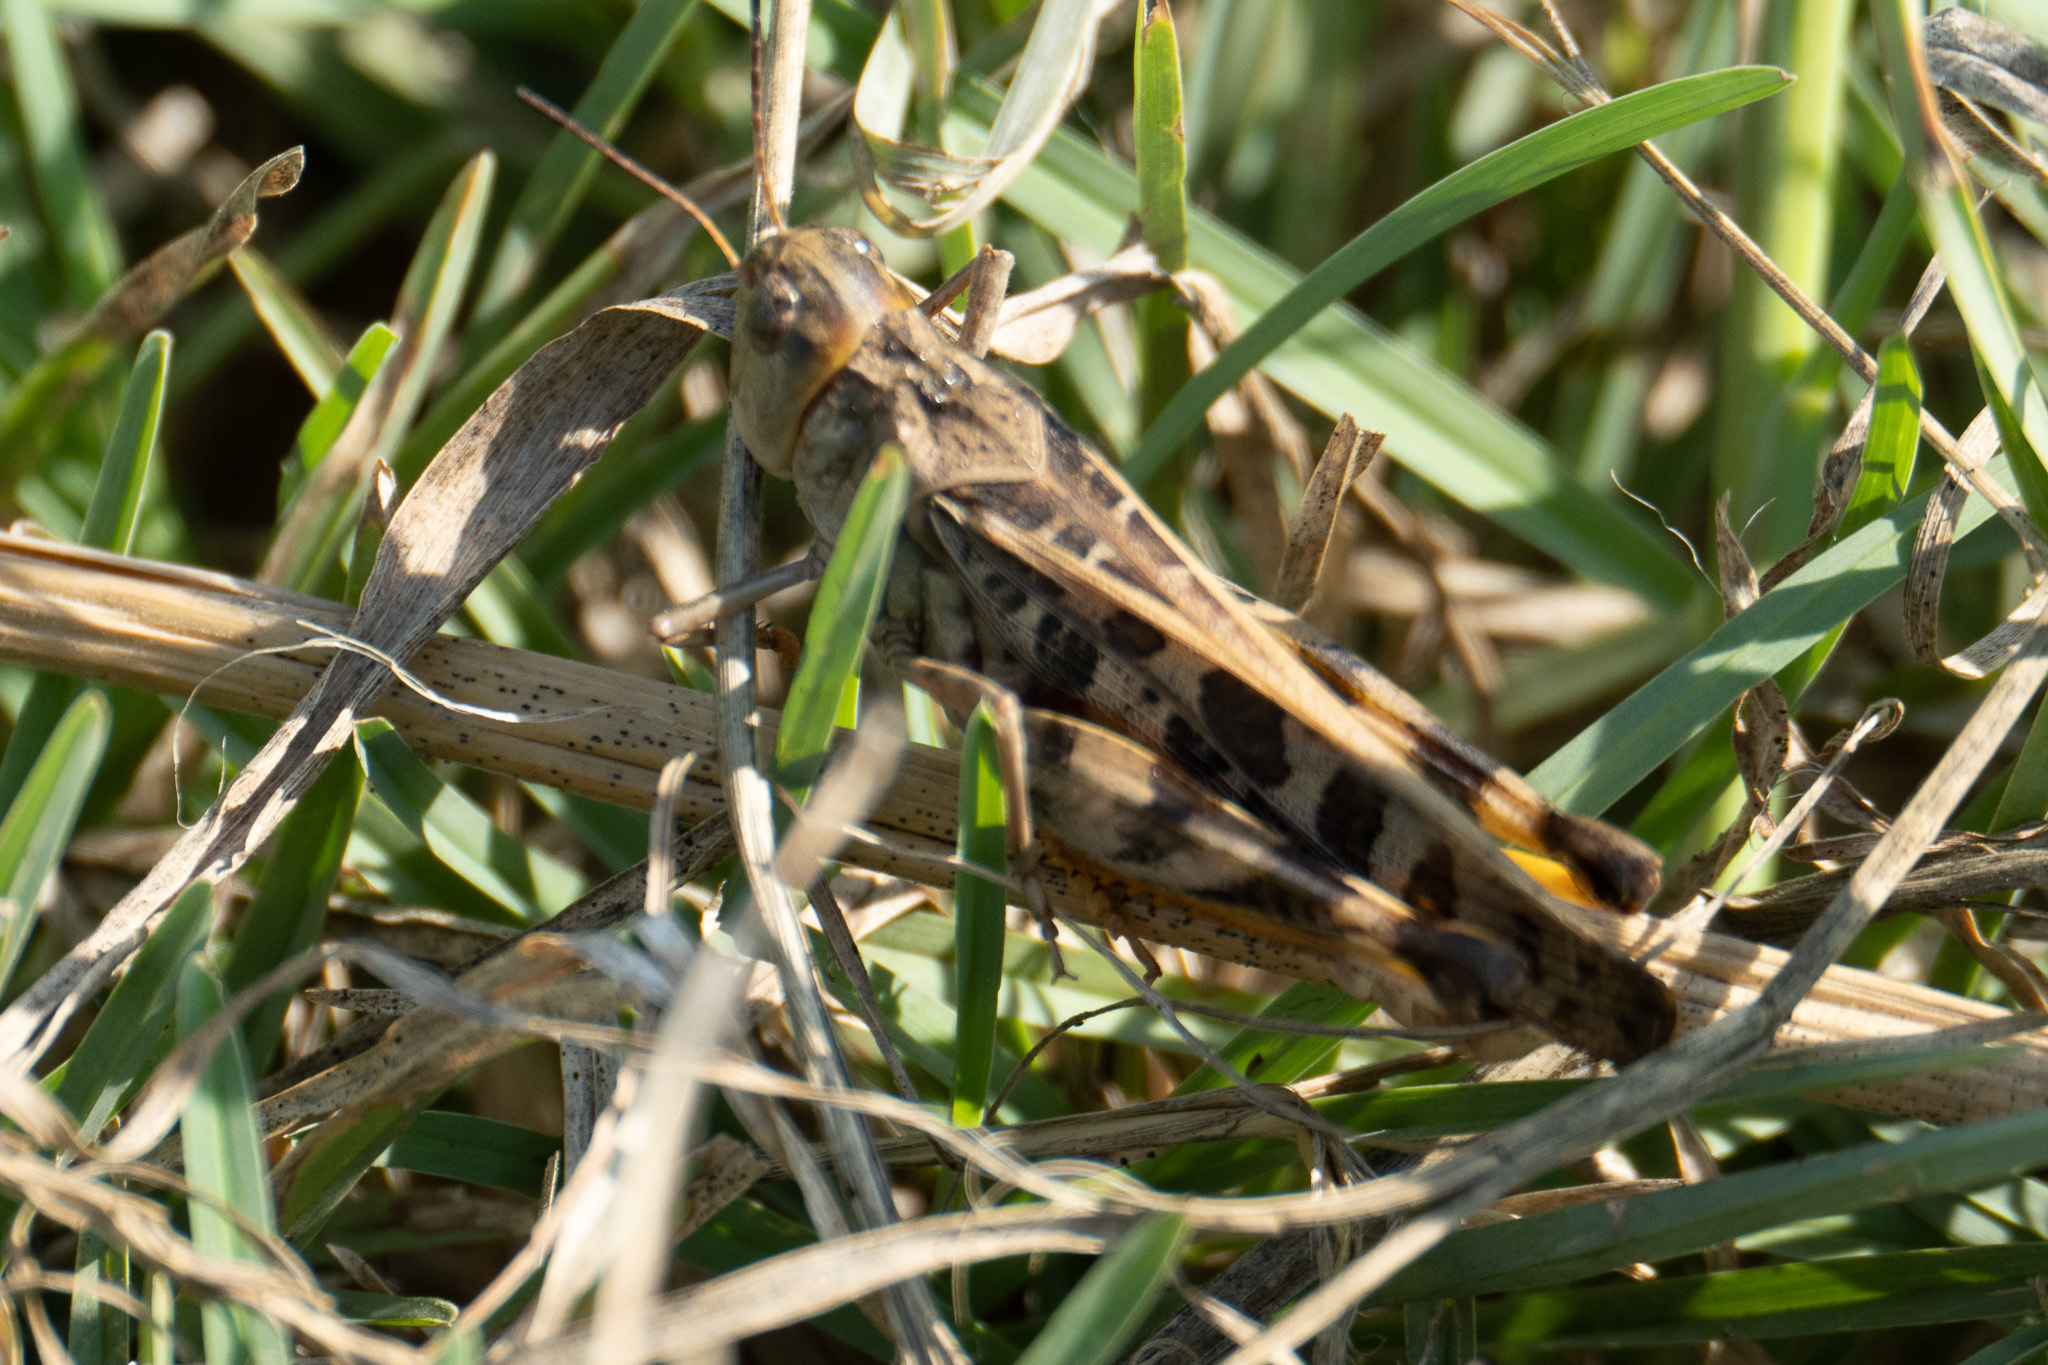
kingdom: Animalia
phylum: Arthropoda
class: Insecta
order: Orthoptera
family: Acrididae
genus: Hippiscus
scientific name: Hippiscus ocelote
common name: Wrinkled grasshopper
